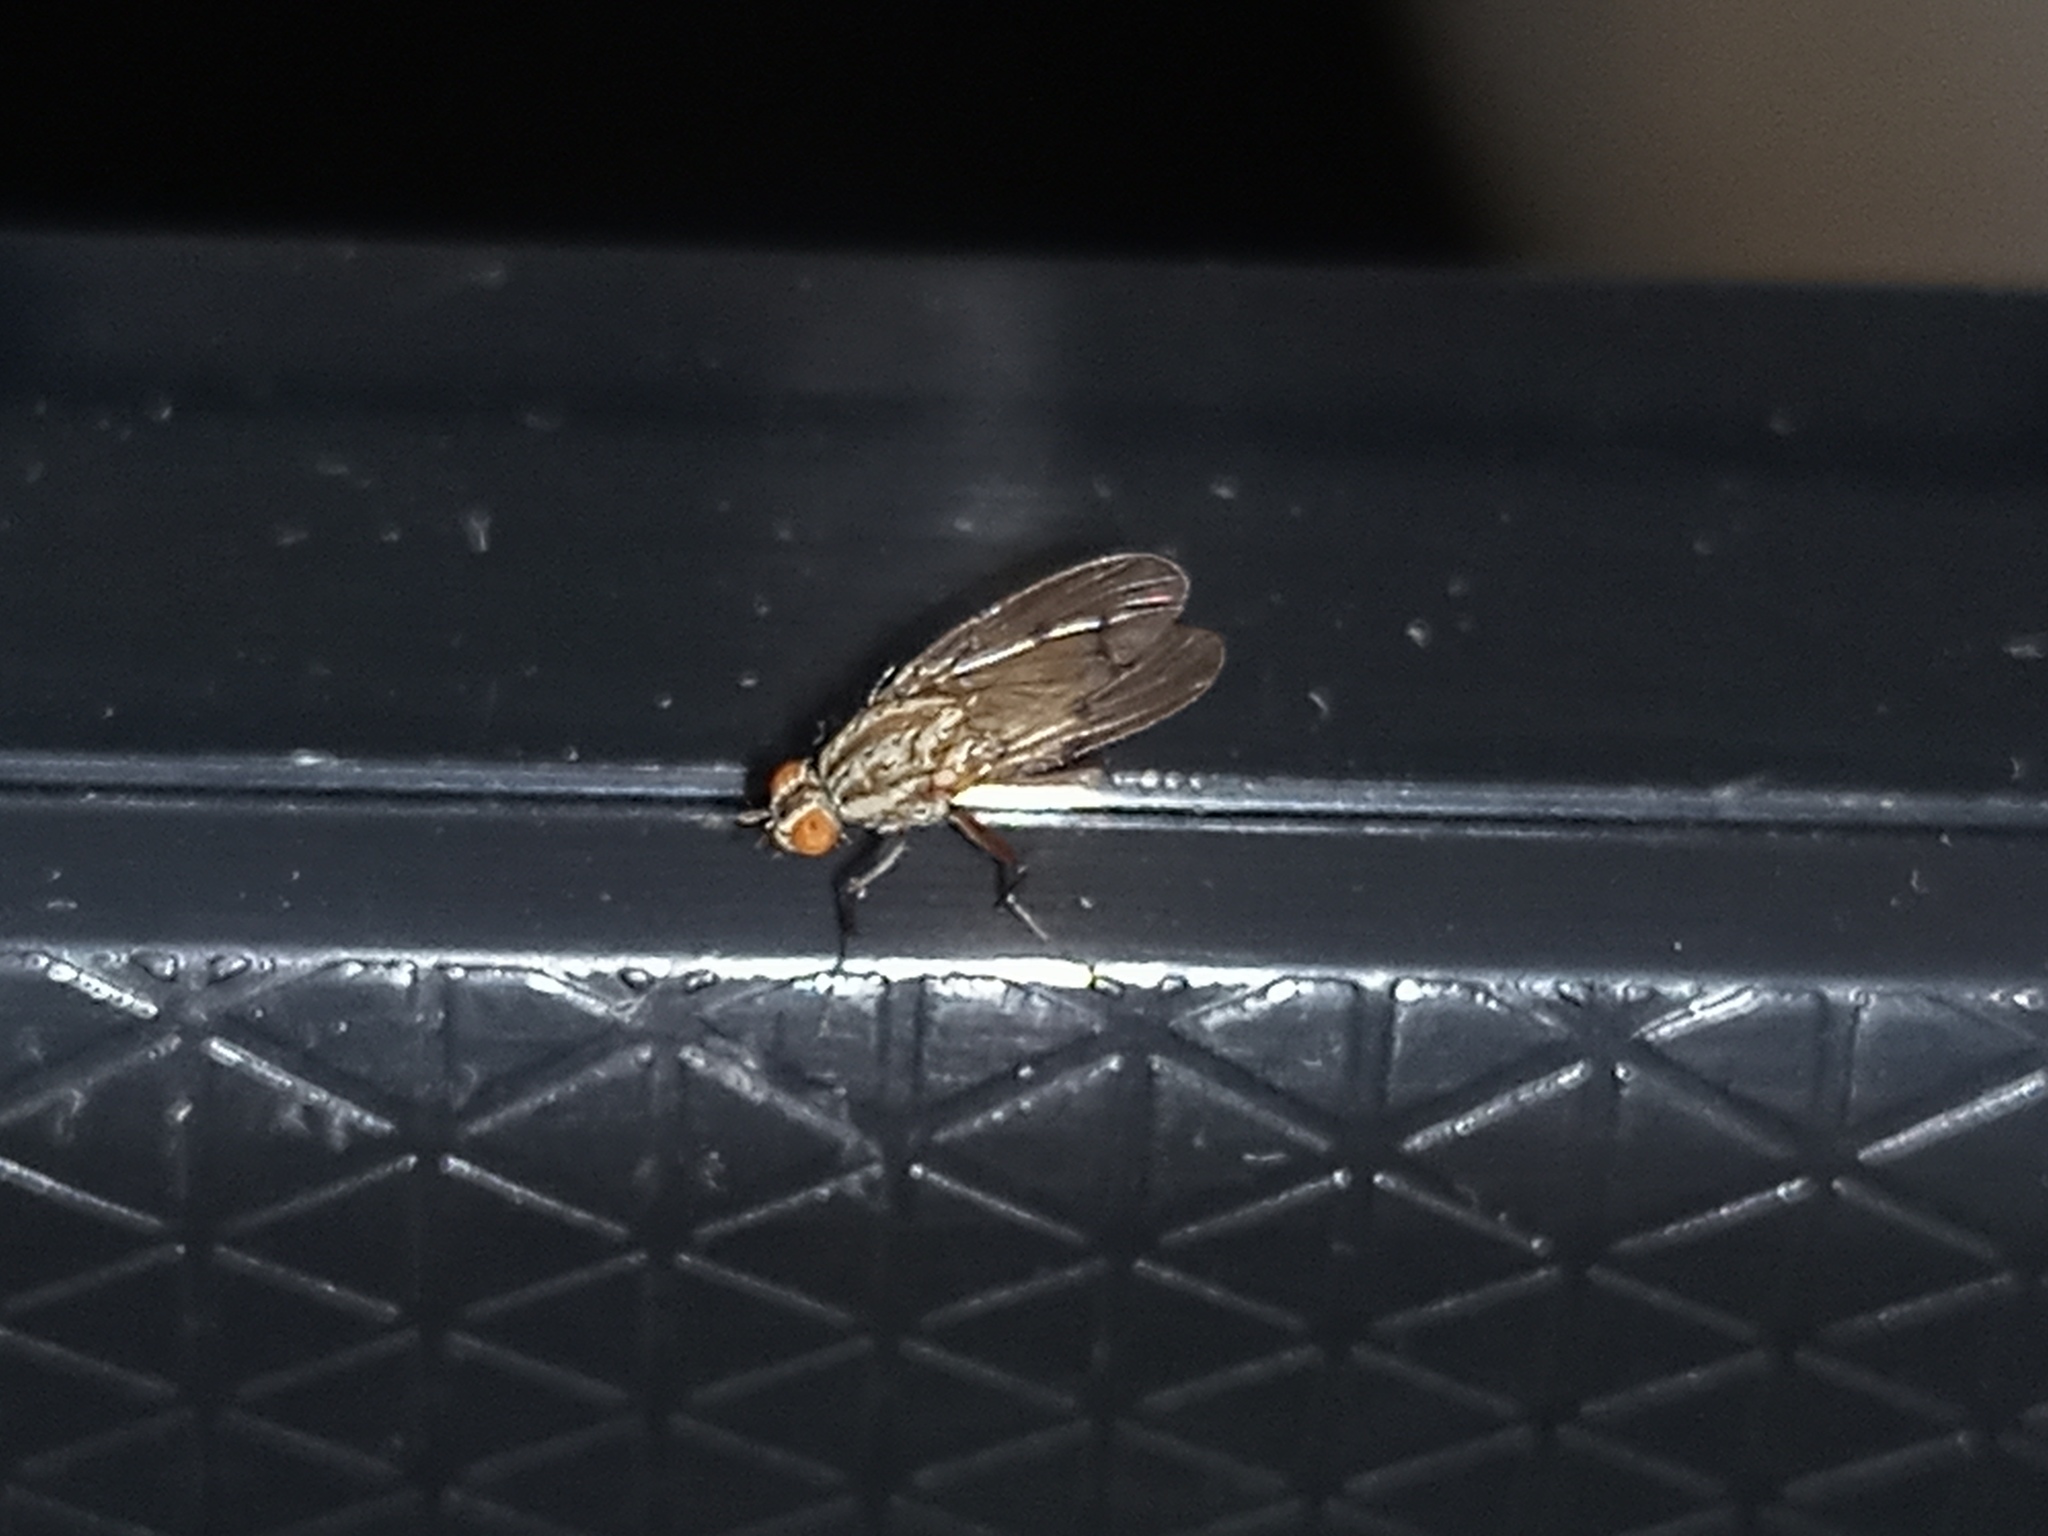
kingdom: Animalia
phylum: Arthropoda
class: Insecta
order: Diptera
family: Anthomyiidae
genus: Anthomyia
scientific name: Anthomyia punctipennis
